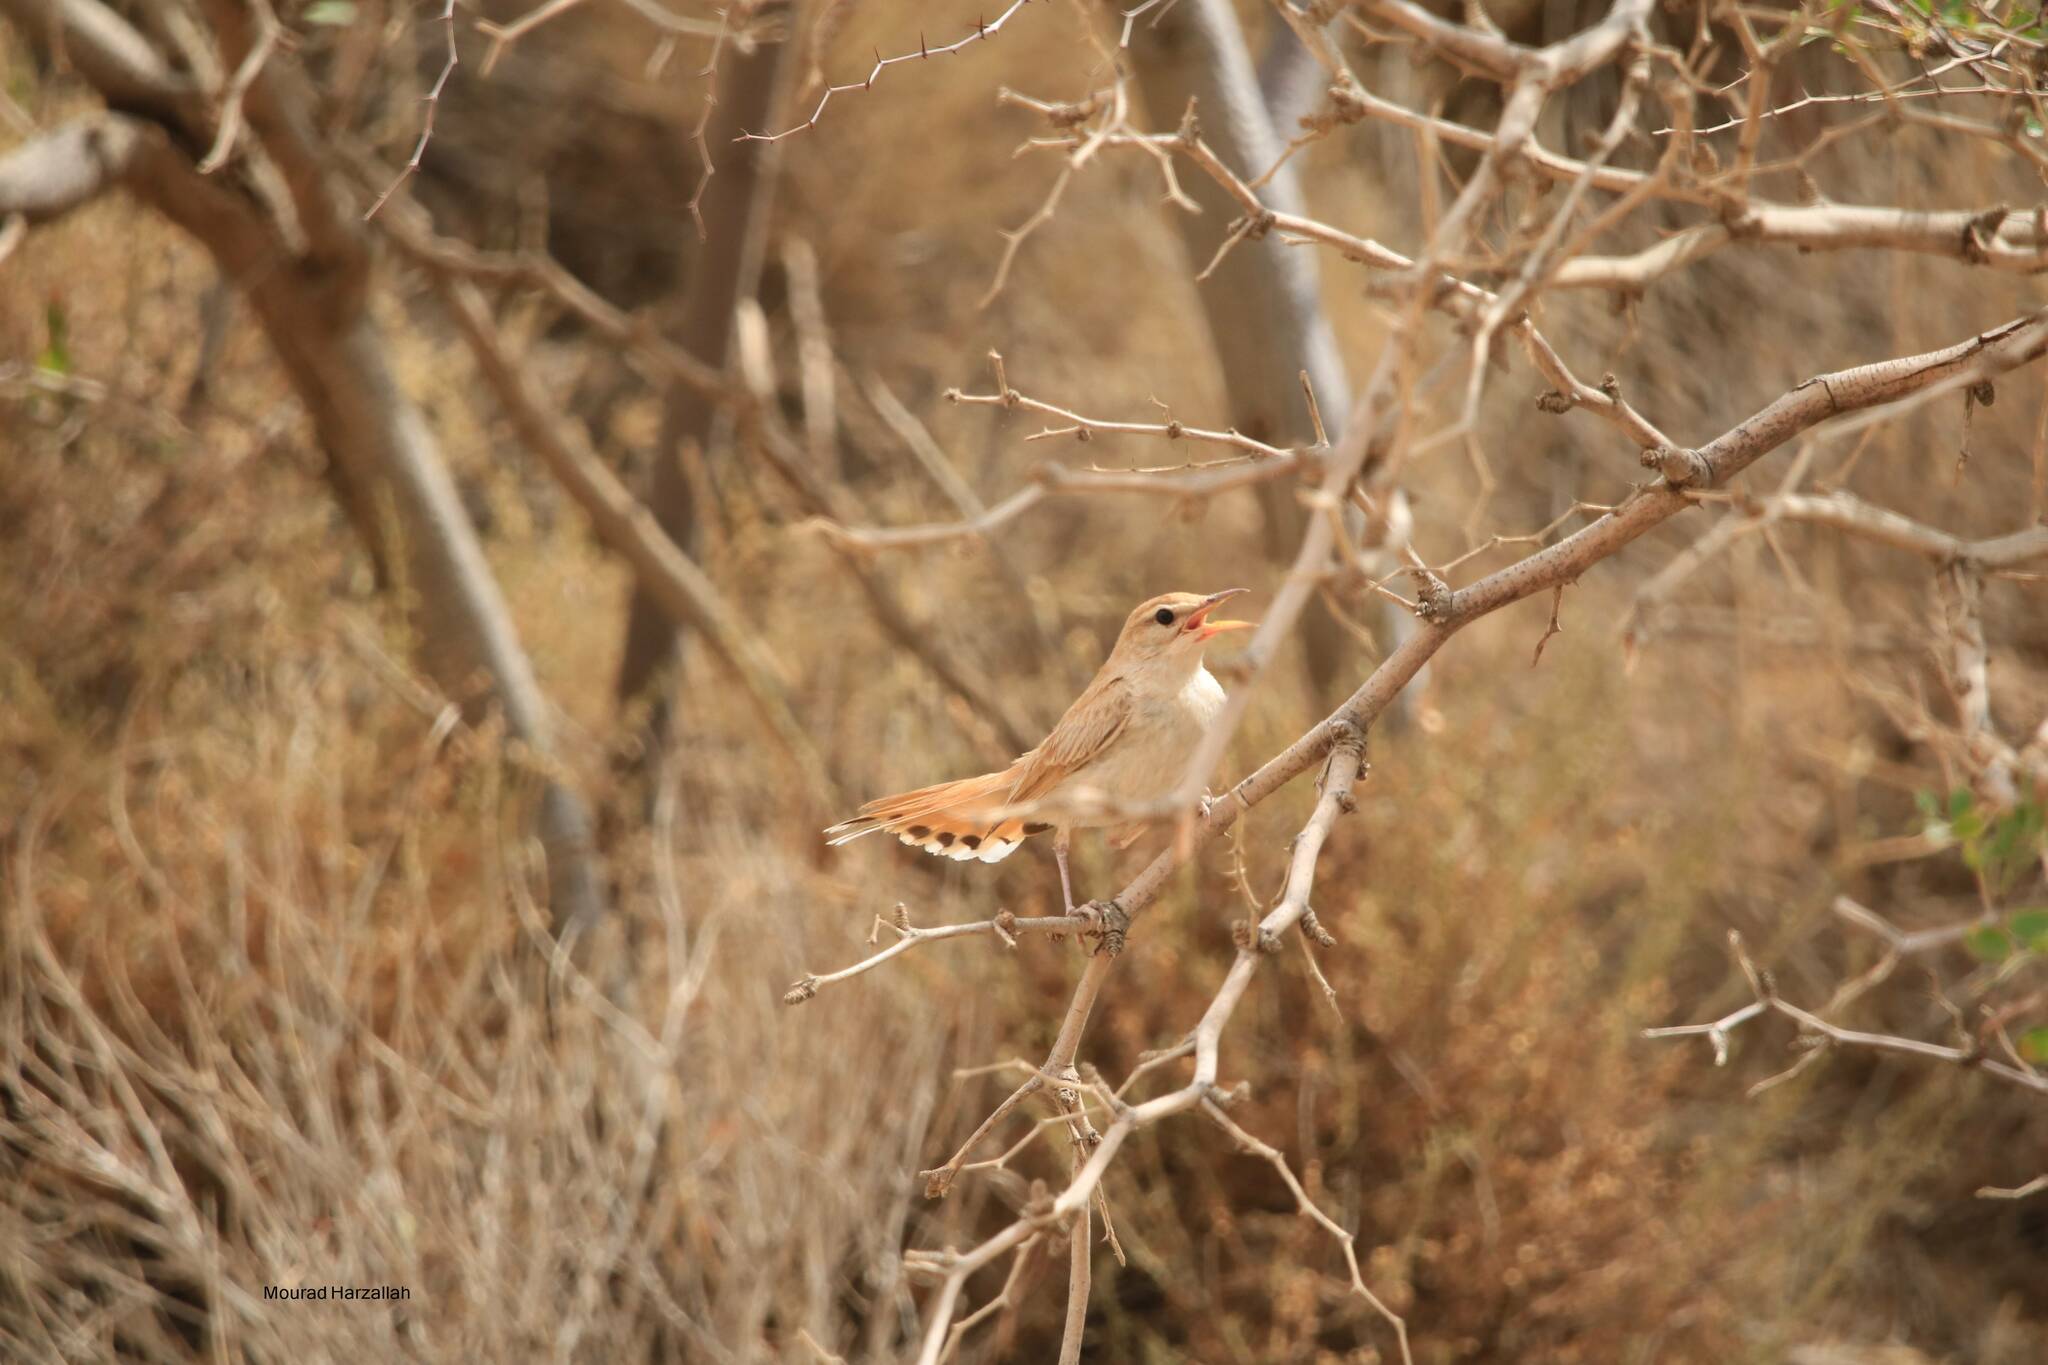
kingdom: Animalia
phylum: Chordata
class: Aves
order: Passeriformes
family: Muscicapidae
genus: Erythropygia
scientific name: Erythropygia galactotes
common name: Rufous-tailed scrub robin
